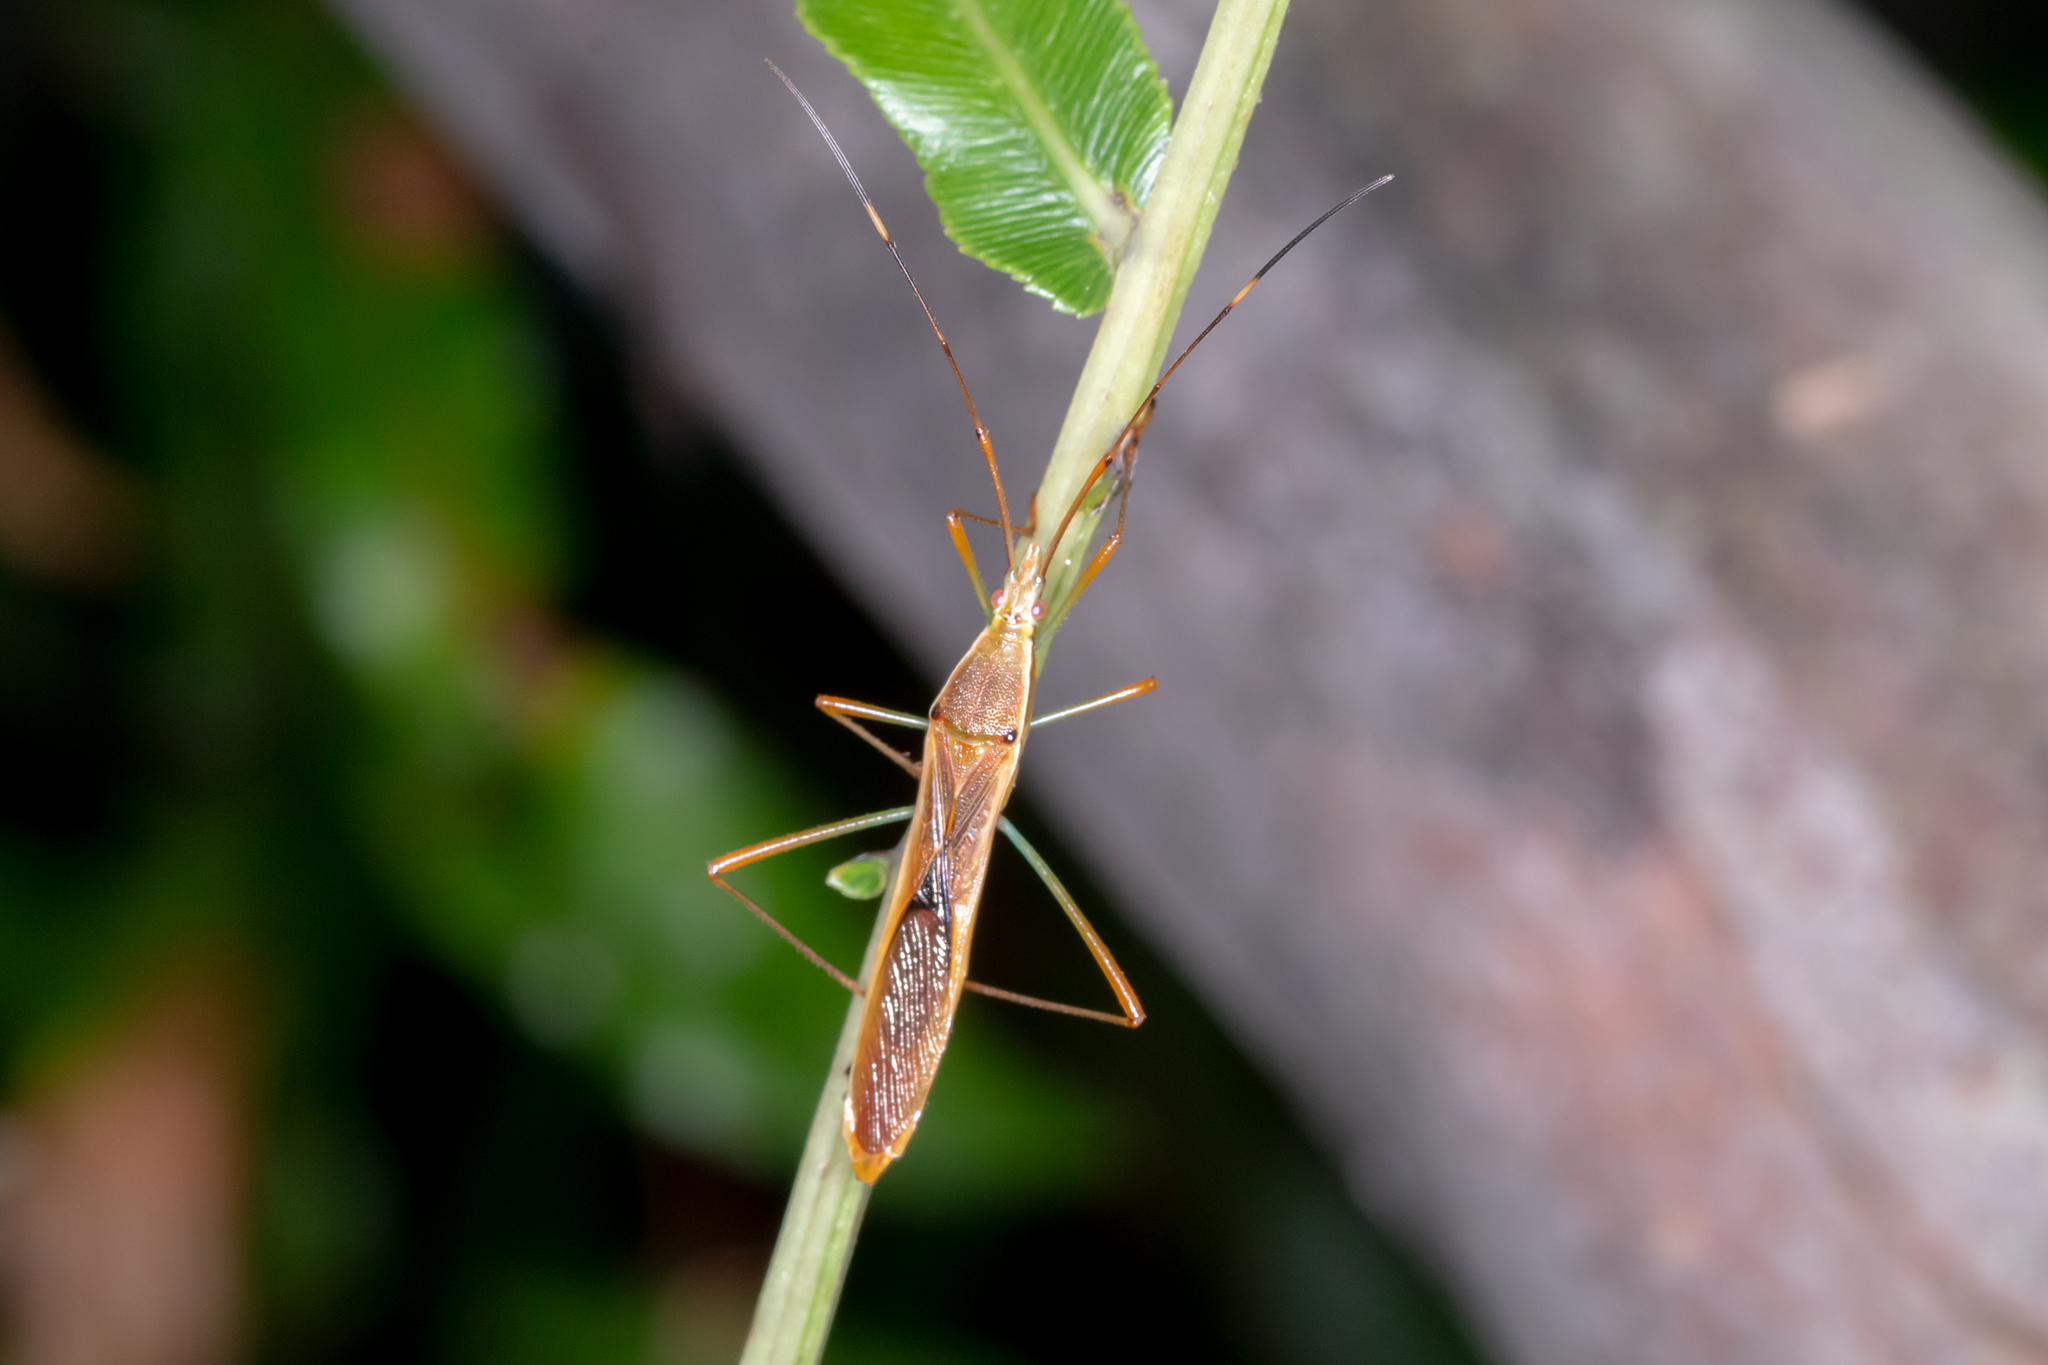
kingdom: Animalia
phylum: Arthropoda
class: Insecta
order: Hemiptera
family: Alydidae
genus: Leptocorisa
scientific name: Leptocorisa acuta
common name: Gandhi bug
